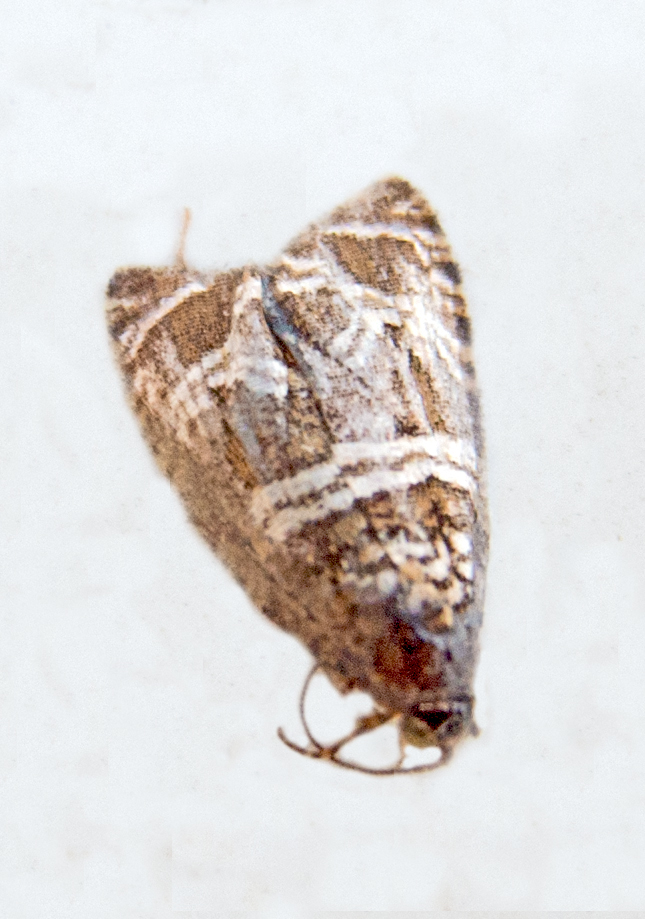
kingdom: Animalia
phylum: Arthropoda
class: Insecta
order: Lepidoptera
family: Tortricidae
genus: Syricoris
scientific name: Syricoris rivulana
